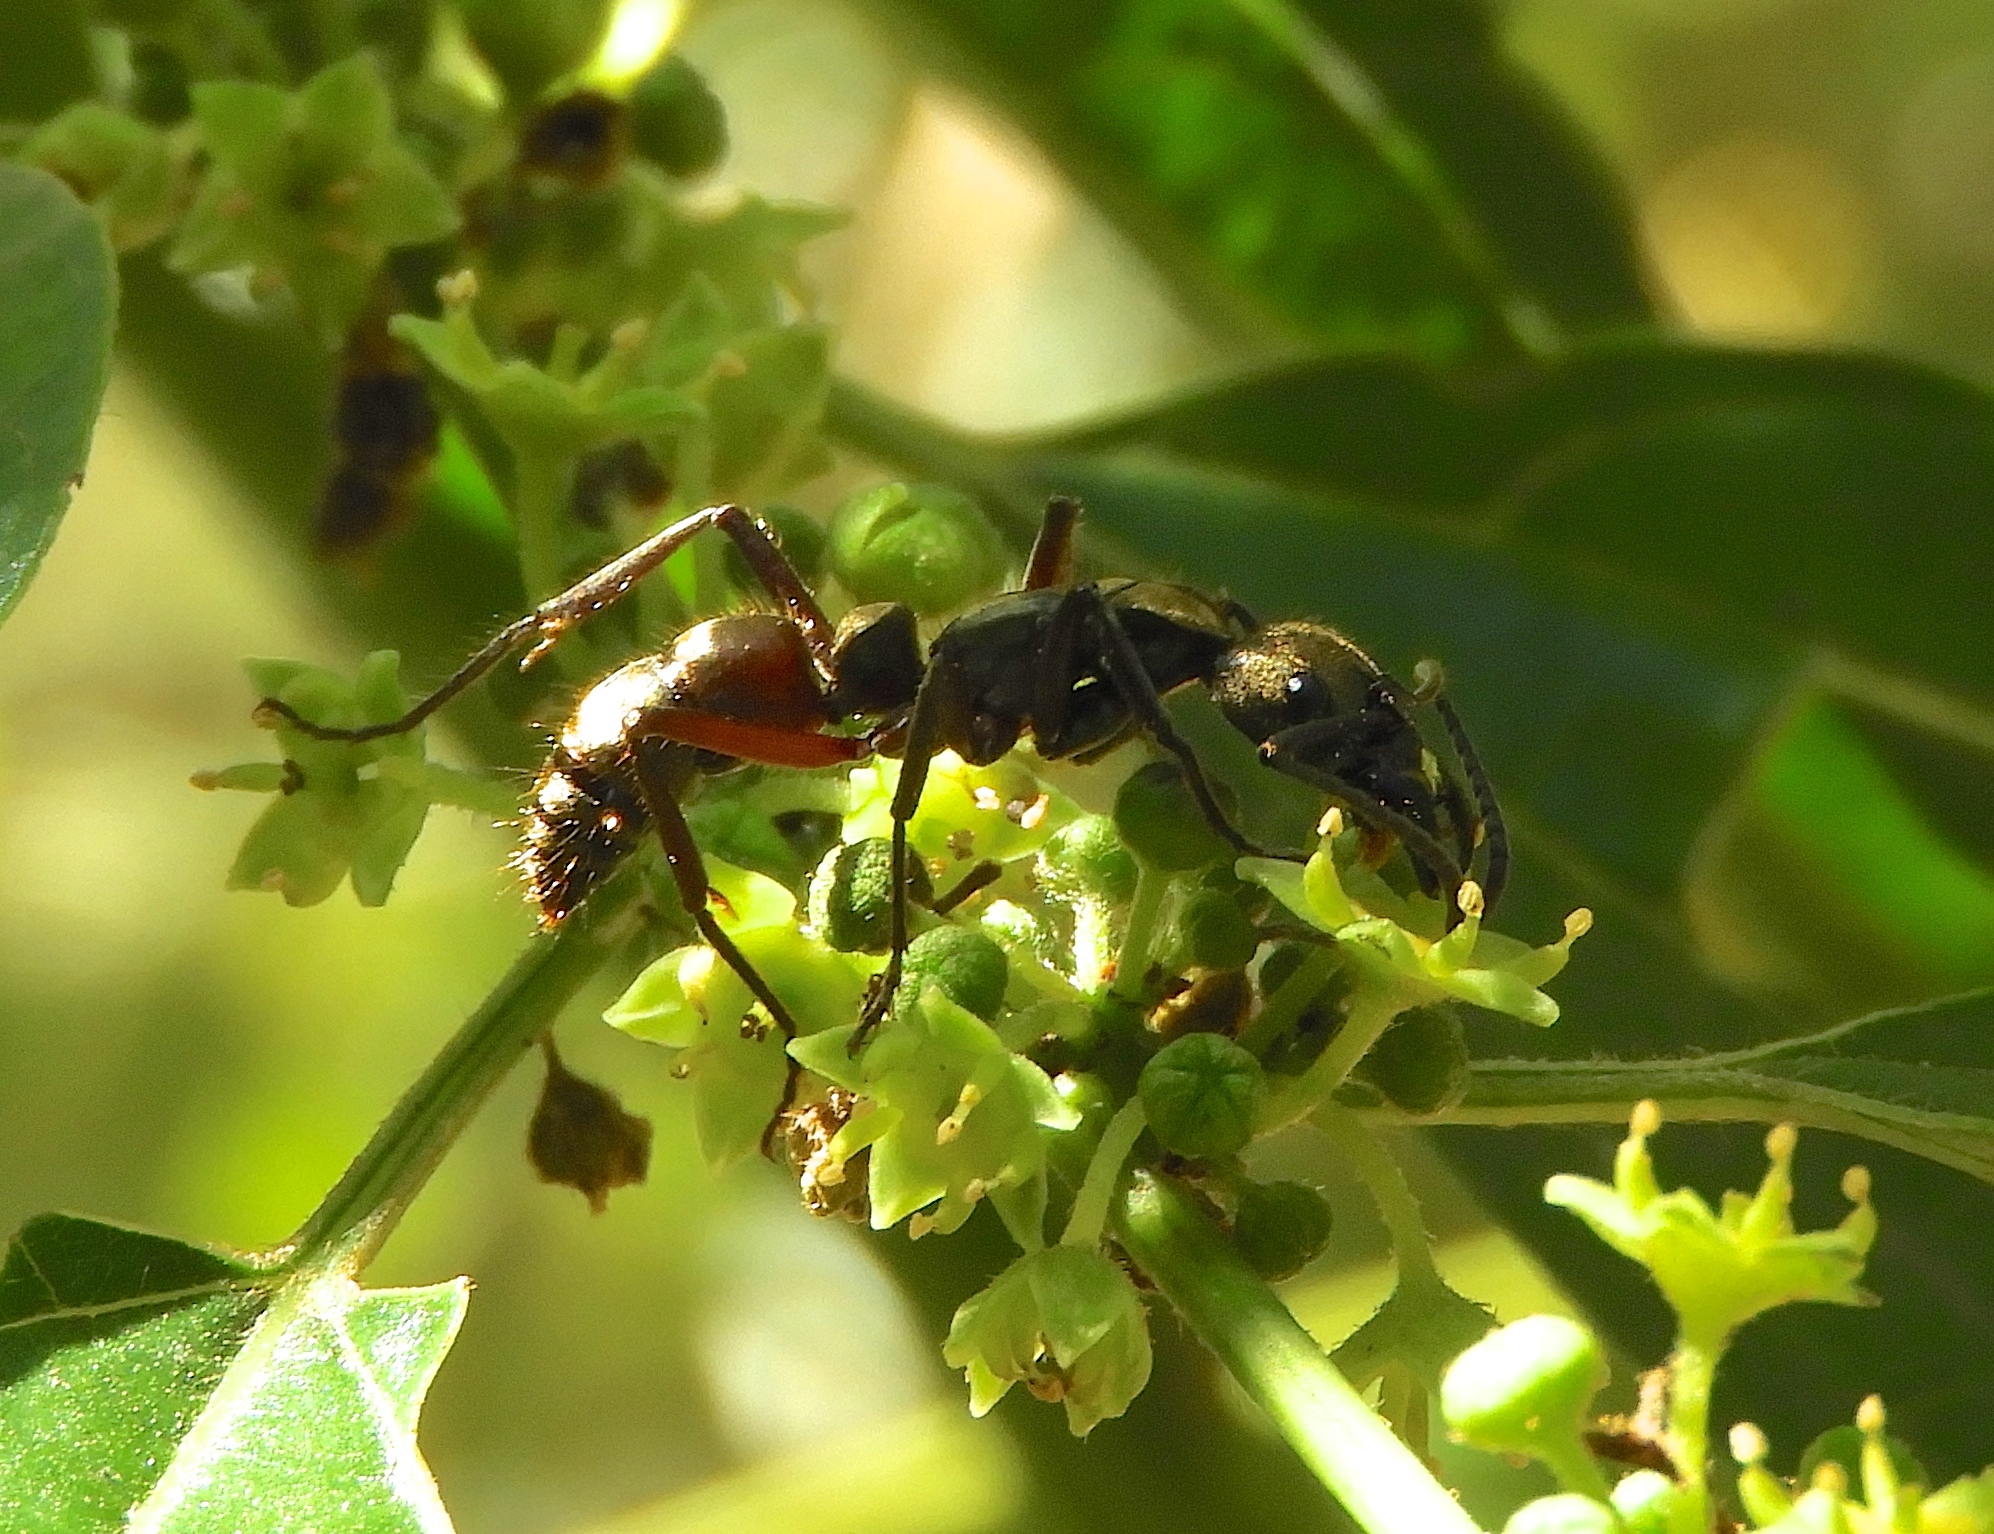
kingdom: Animalia
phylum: Arthropoda
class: Insecta
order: Hymenoptera
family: Formicidae
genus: Pachycondyla
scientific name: Pachycondyla villosa
